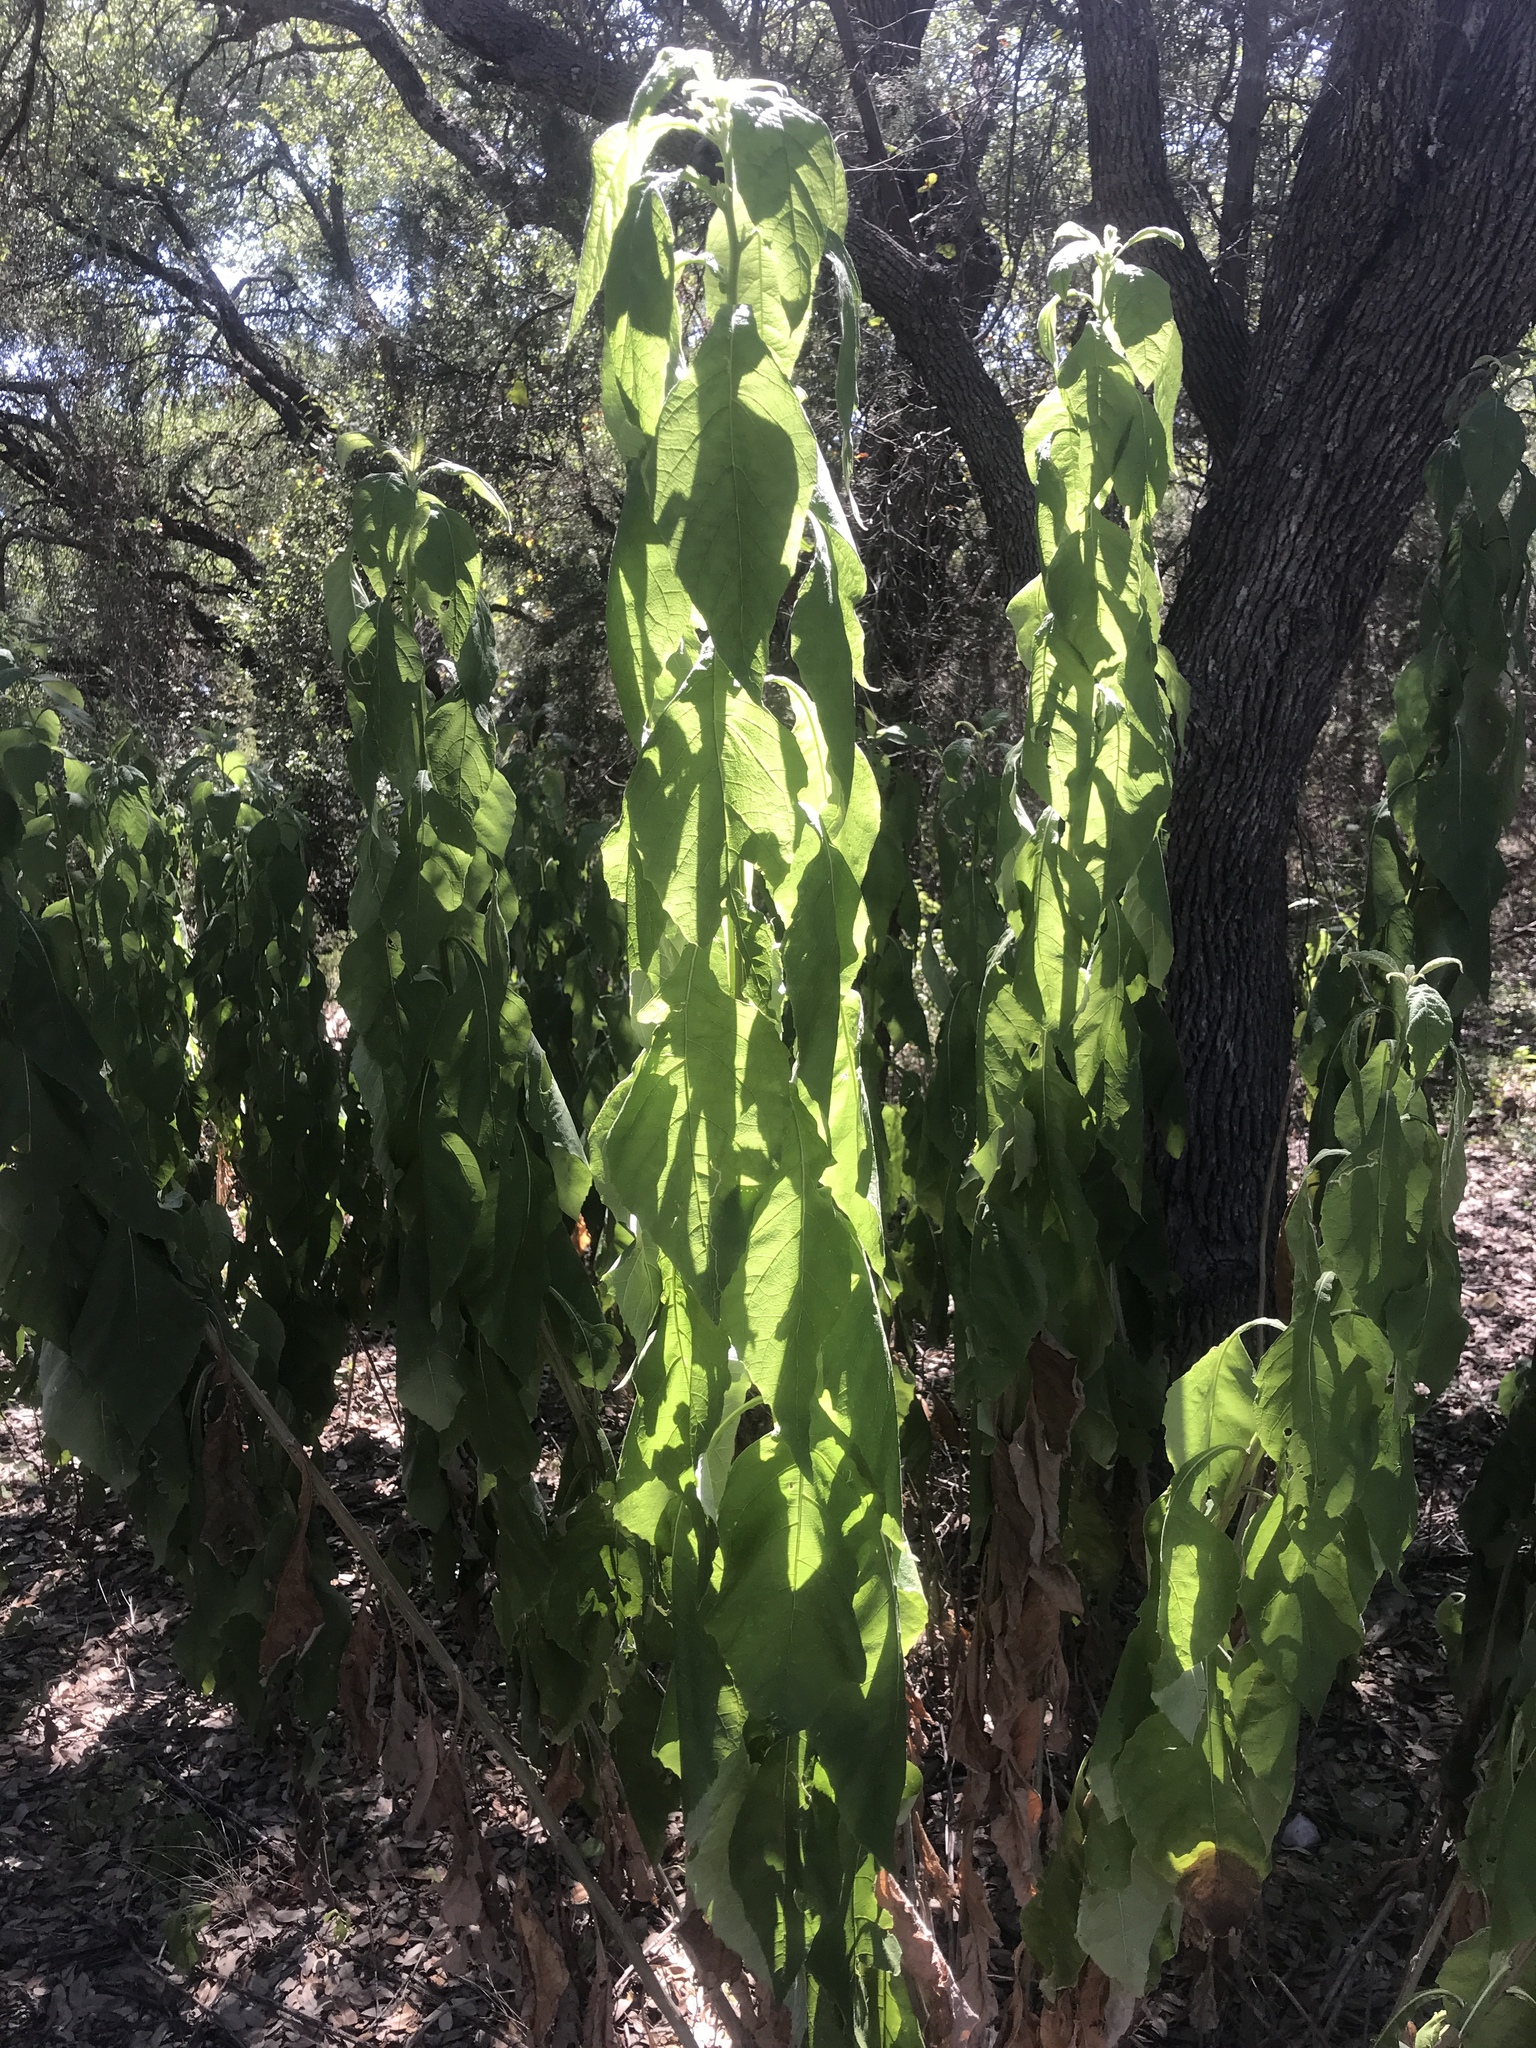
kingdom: Plantae
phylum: Tracheophyta
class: Magnoliopsida
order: Asterales
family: Asteraceae
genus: Verbesina
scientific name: Verbesina virginica
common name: Frostweed
